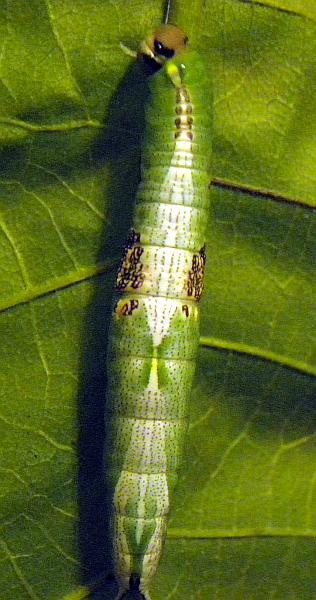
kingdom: Animalia
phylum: Arthropoda
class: Insecta
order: Lepidoptera
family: Notodontidae
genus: Disphragis
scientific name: Disphragis Cecrita biundata
